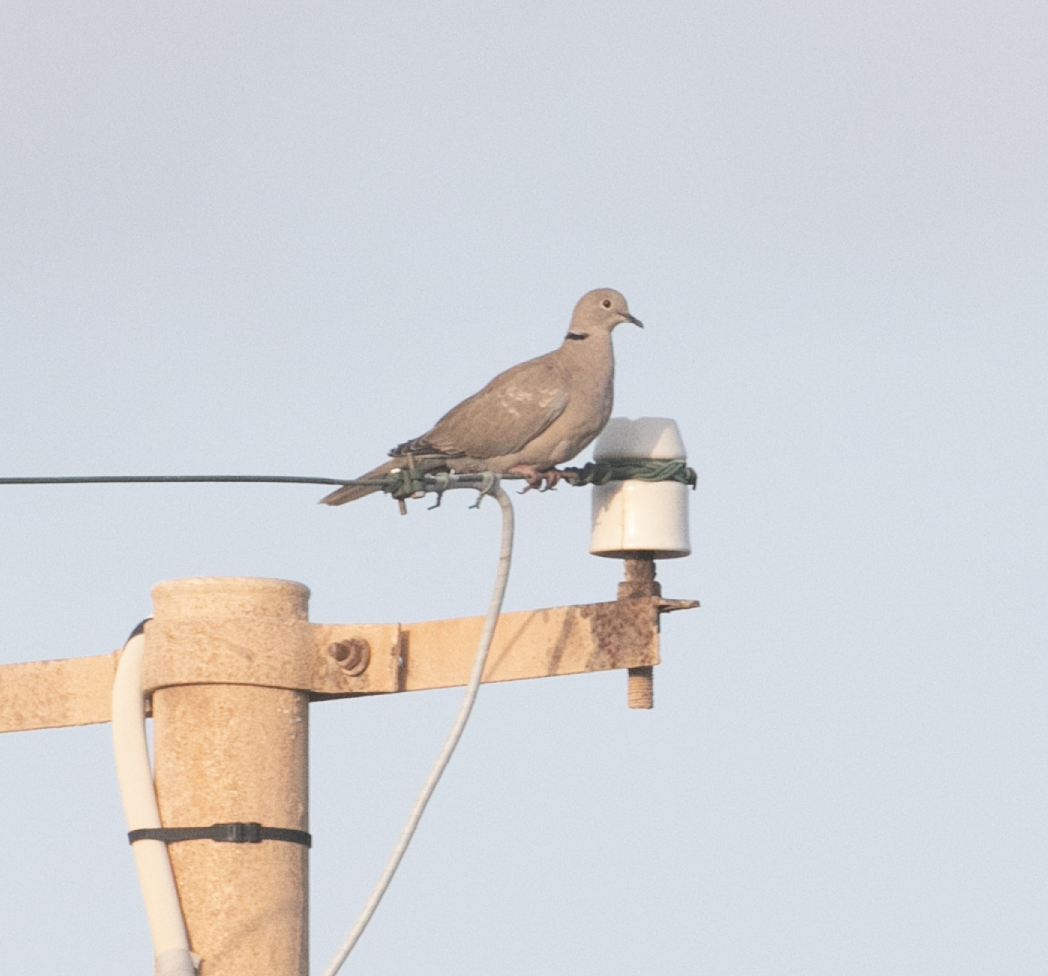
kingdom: Animalia
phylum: Chordata
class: Aves
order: Columbiformes
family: Columbidae
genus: Streptopelia
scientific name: Streptopelia decaocto
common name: Eurasian collared dove
